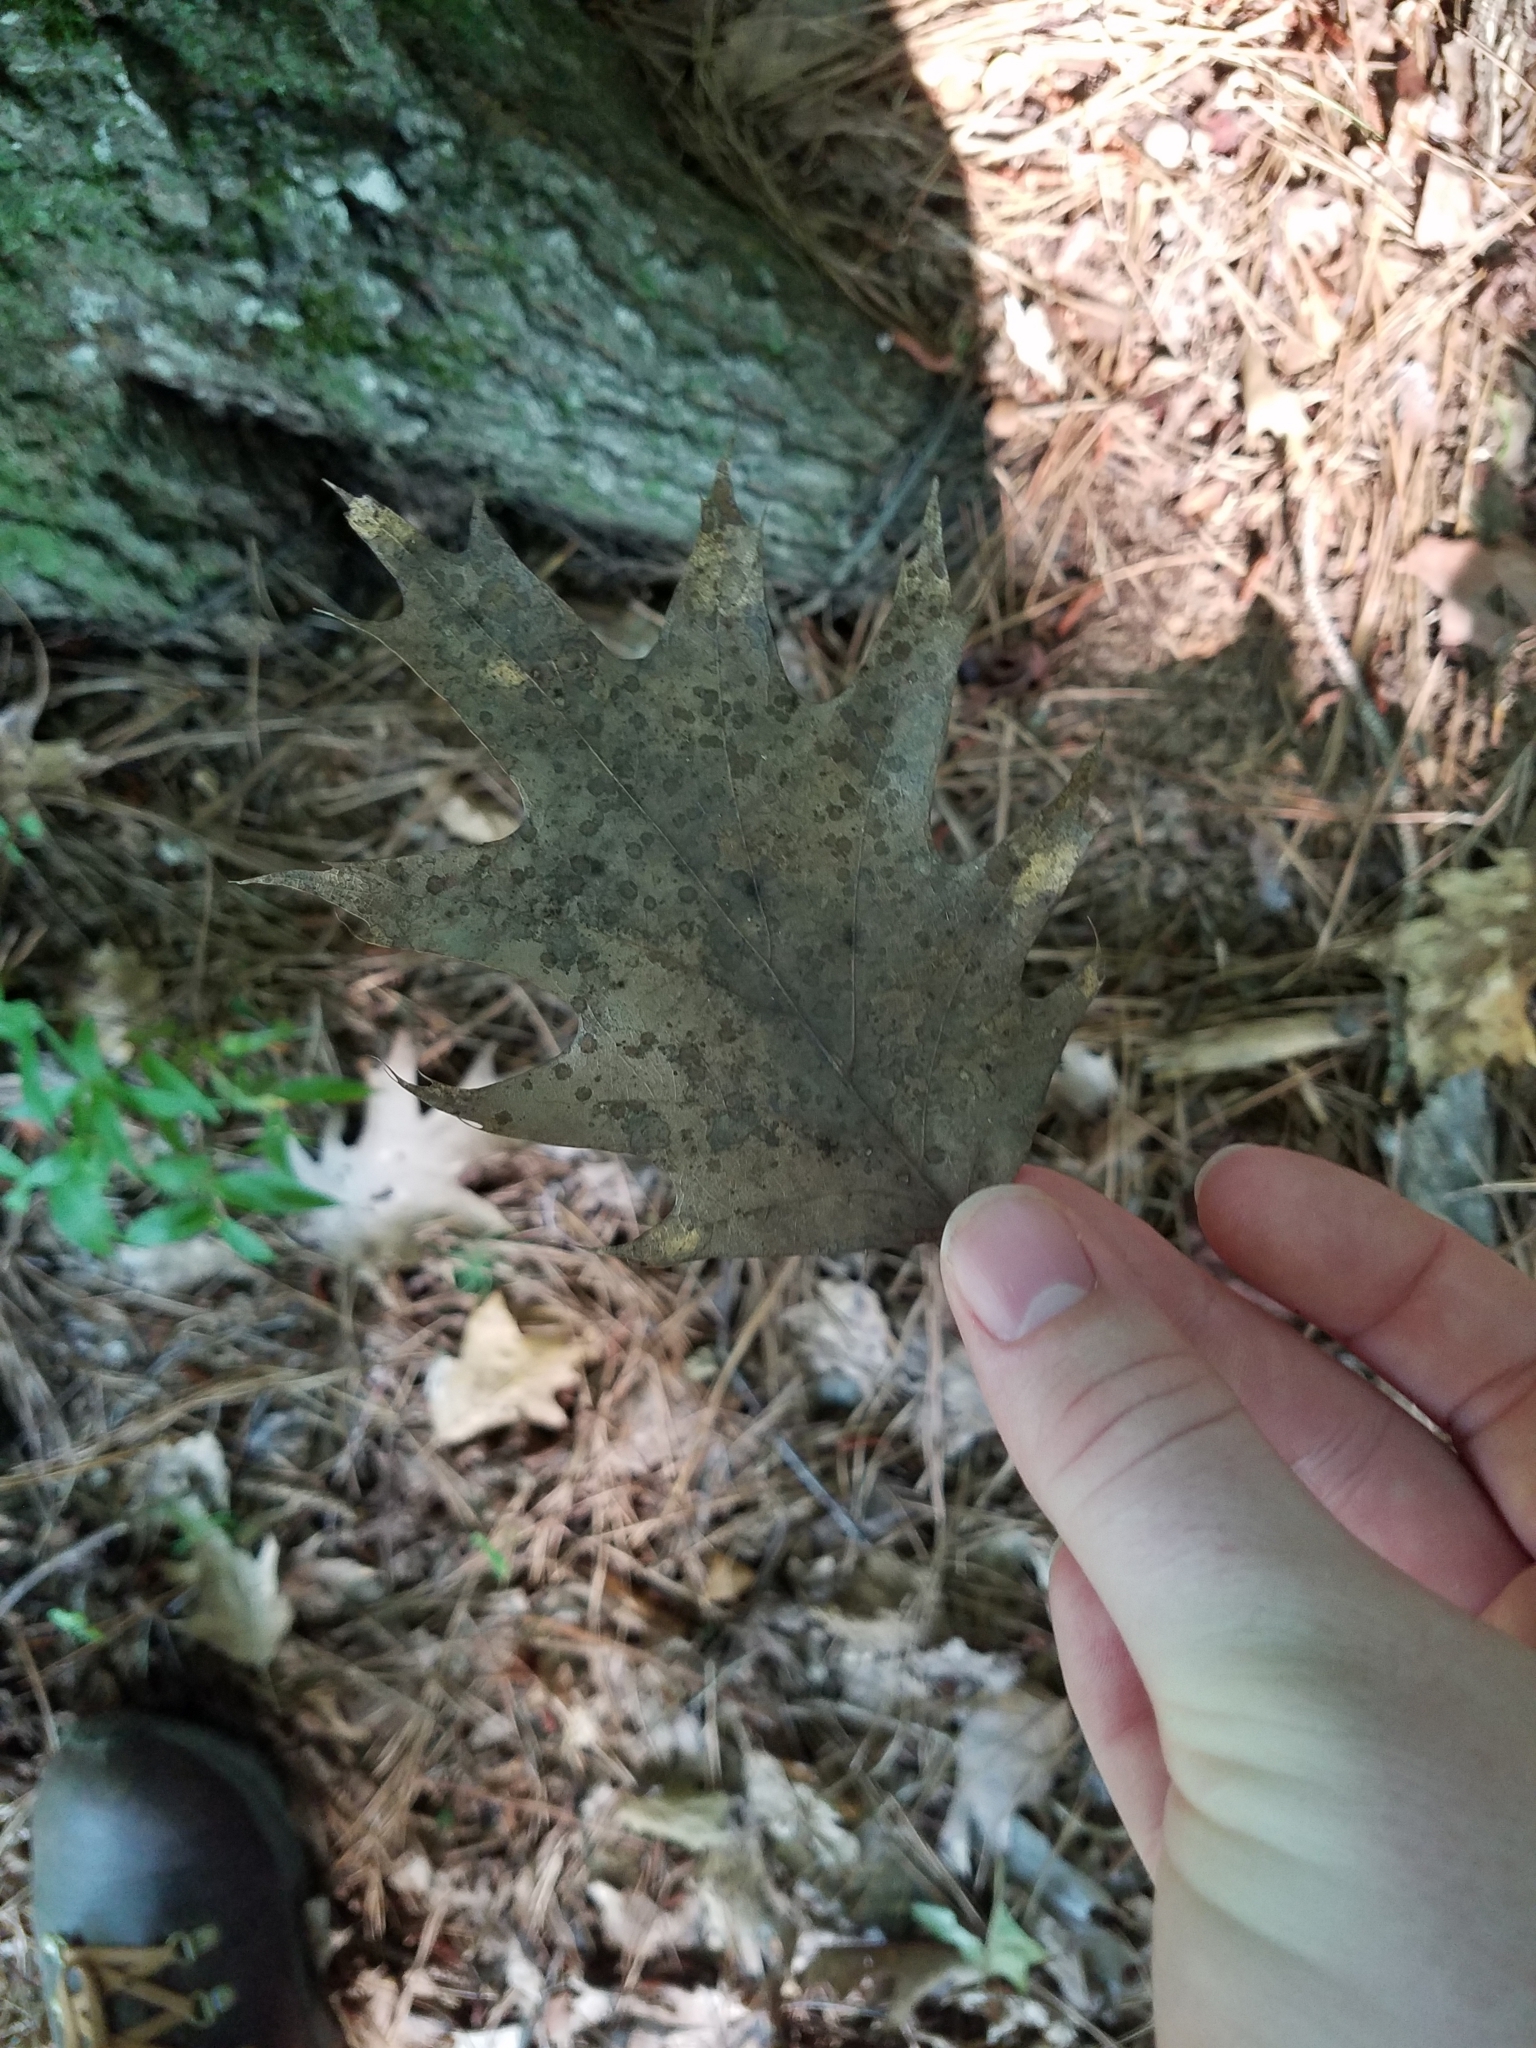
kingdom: Plantae
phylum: Tracheophyta
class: Magnoliopsida
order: Fagales
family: Fagaceae
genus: Quercus
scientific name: Quercus rubra
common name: Red oak
